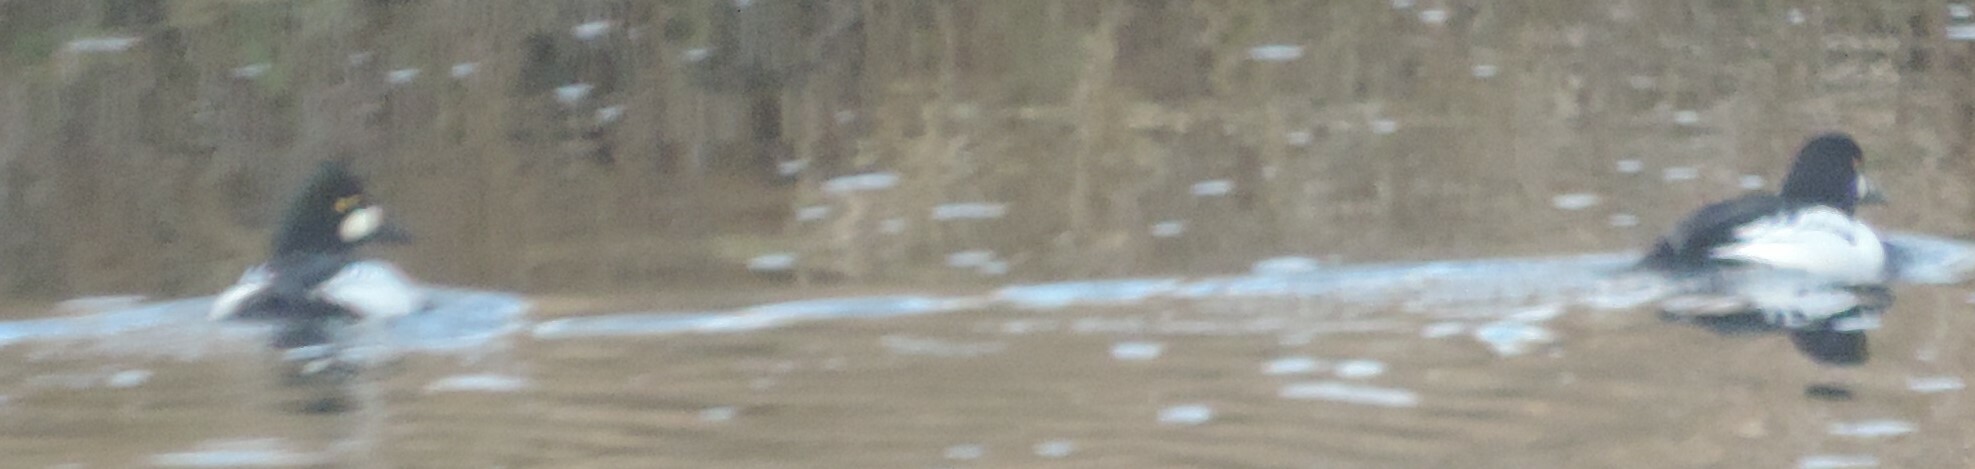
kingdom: Animalia
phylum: Chordata
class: Aves
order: Anseriformes
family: Anatidae
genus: Bucephala
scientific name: Bucephala clangula
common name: Common goldeneye
